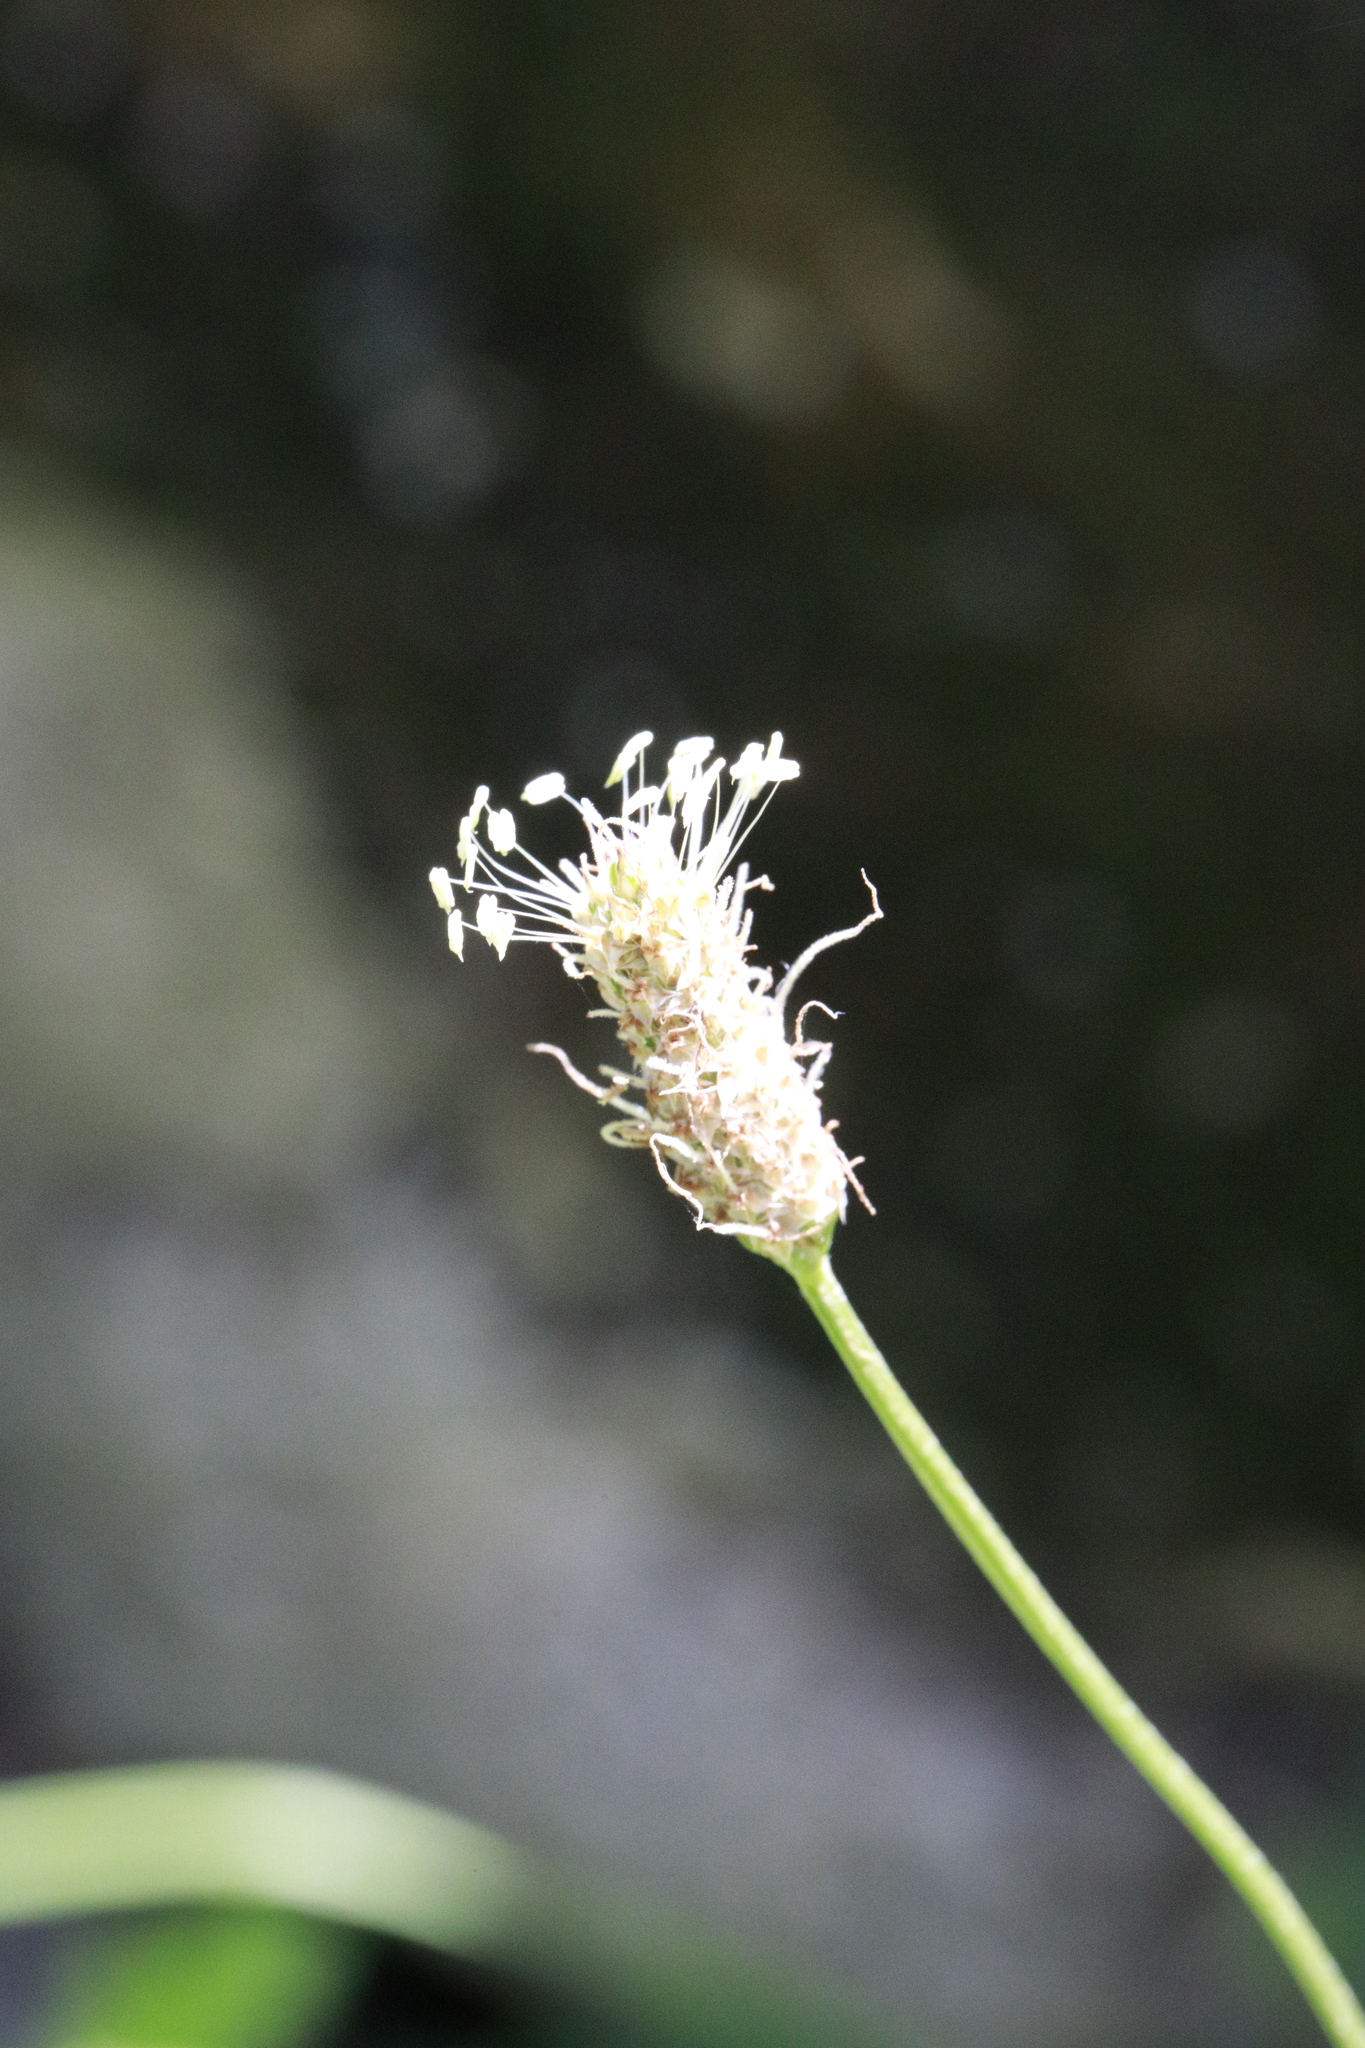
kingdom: Plantae
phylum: Tracheophyta
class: Magnoliopsida
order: Lamiales
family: Plantaginaceae
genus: Plantago
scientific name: Plantago lanceolata
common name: Ribwort plantain
